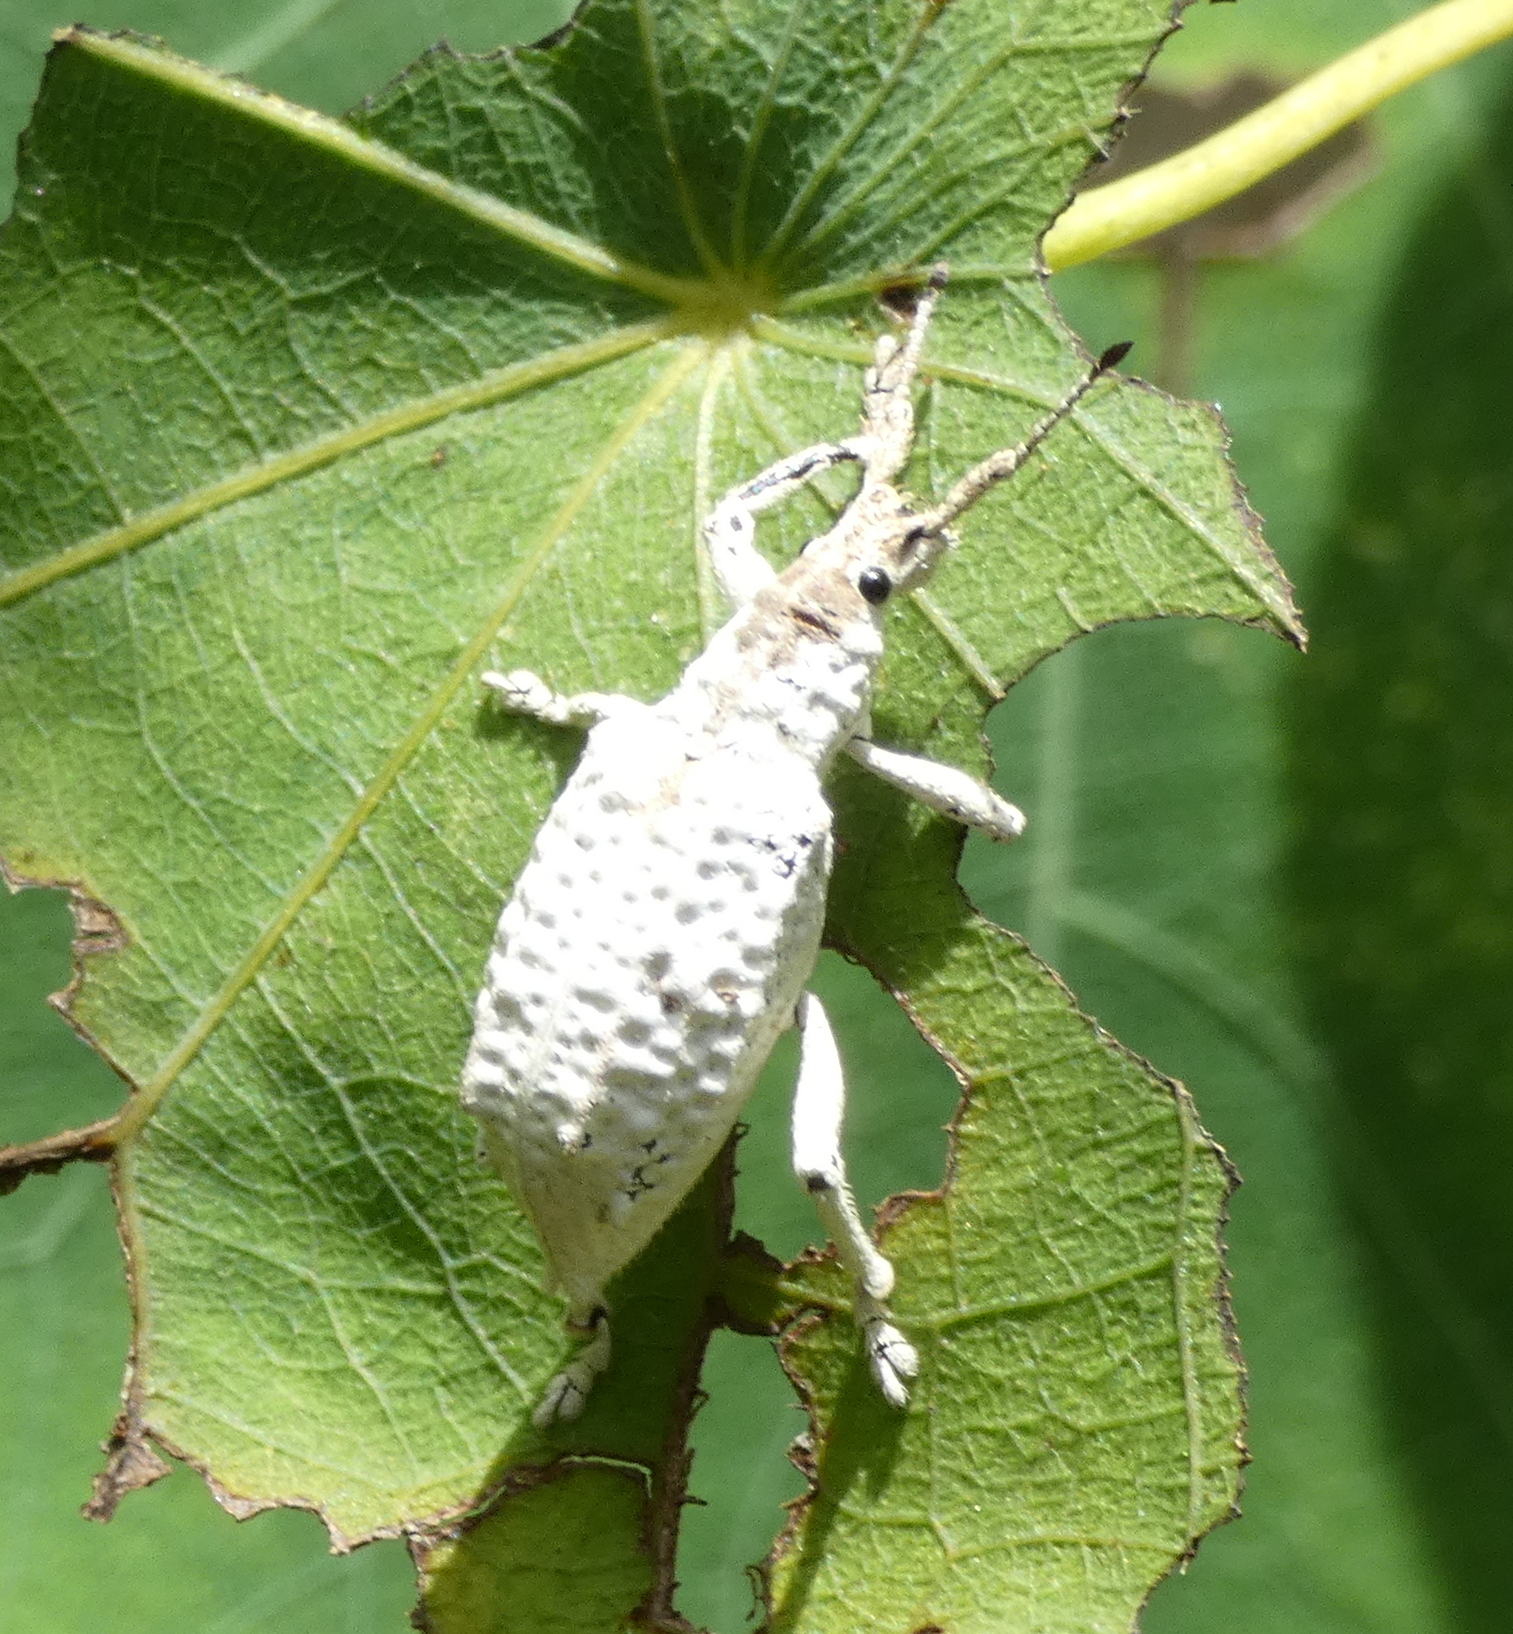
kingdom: Animalia
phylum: Arthropoda
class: Insecta
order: Coleoptera
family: Curculionidae
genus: Compsus
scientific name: Compsus niveus
